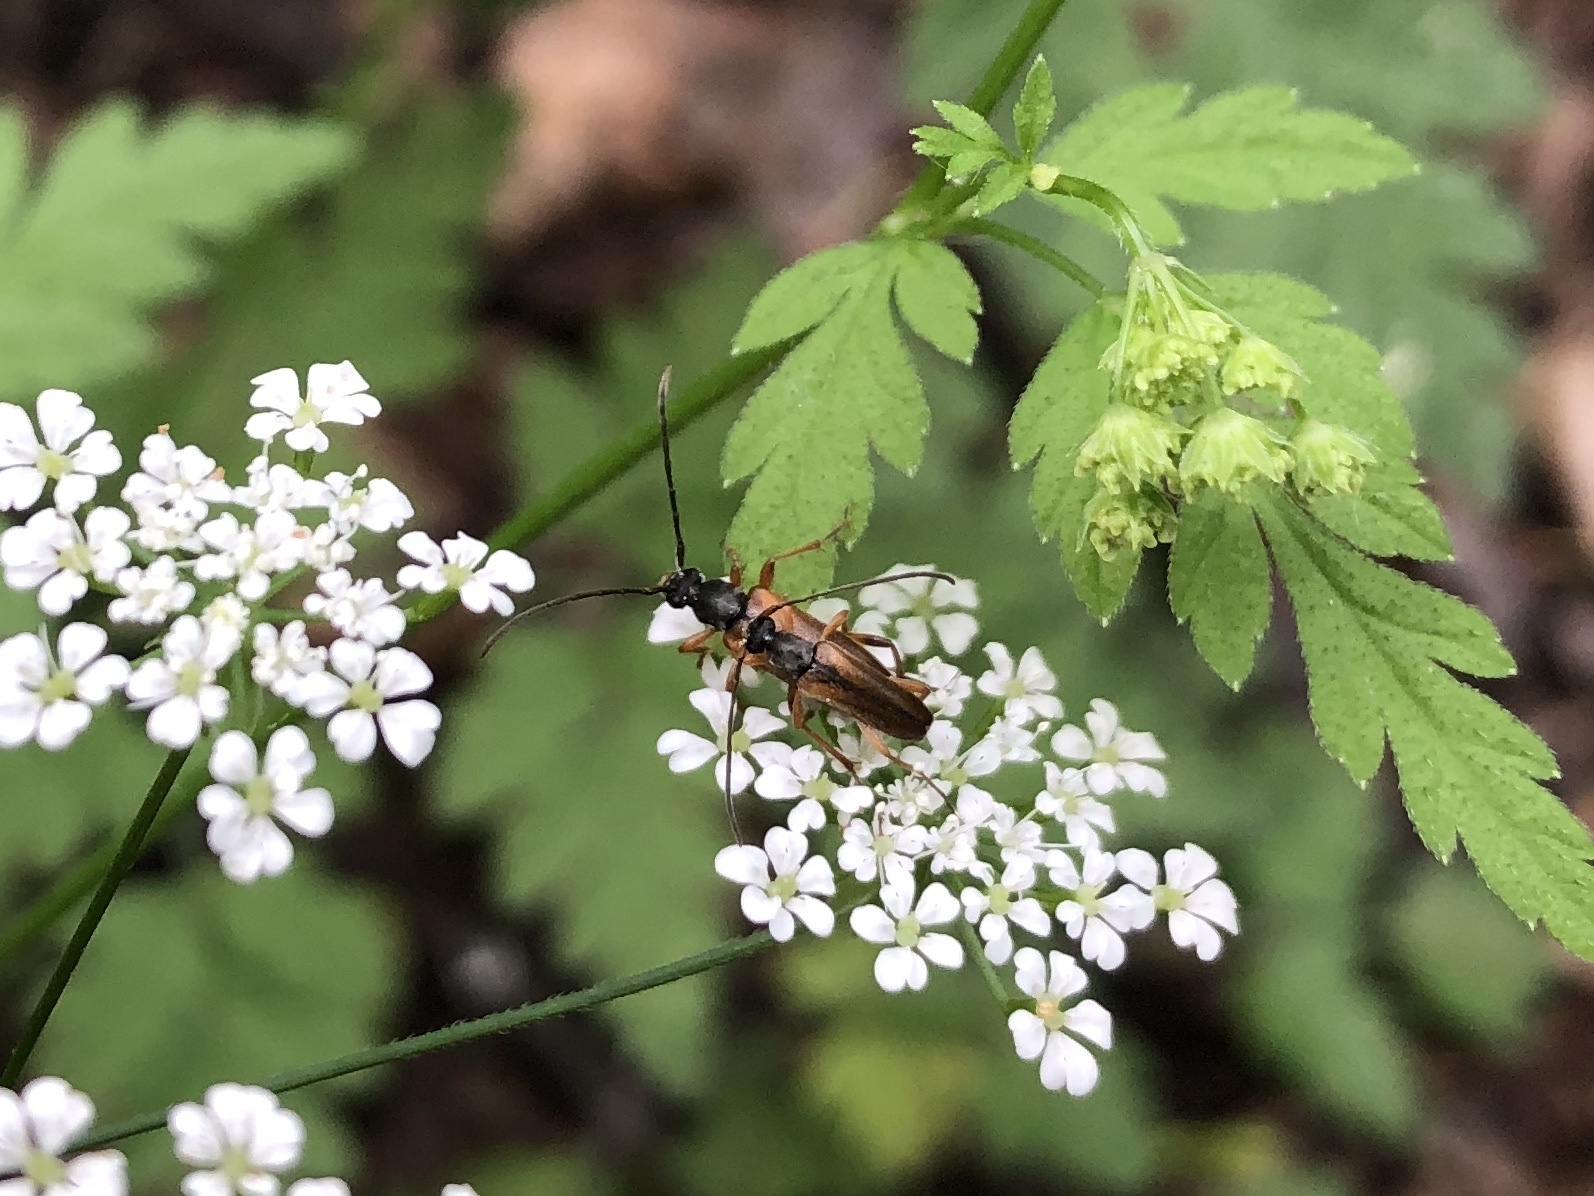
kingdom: Animalia
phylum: Arthropoda
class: Insecta
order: Coleoptera
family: Cerambycidae
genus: Alosterna
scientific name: Alosterna tabacicolor
